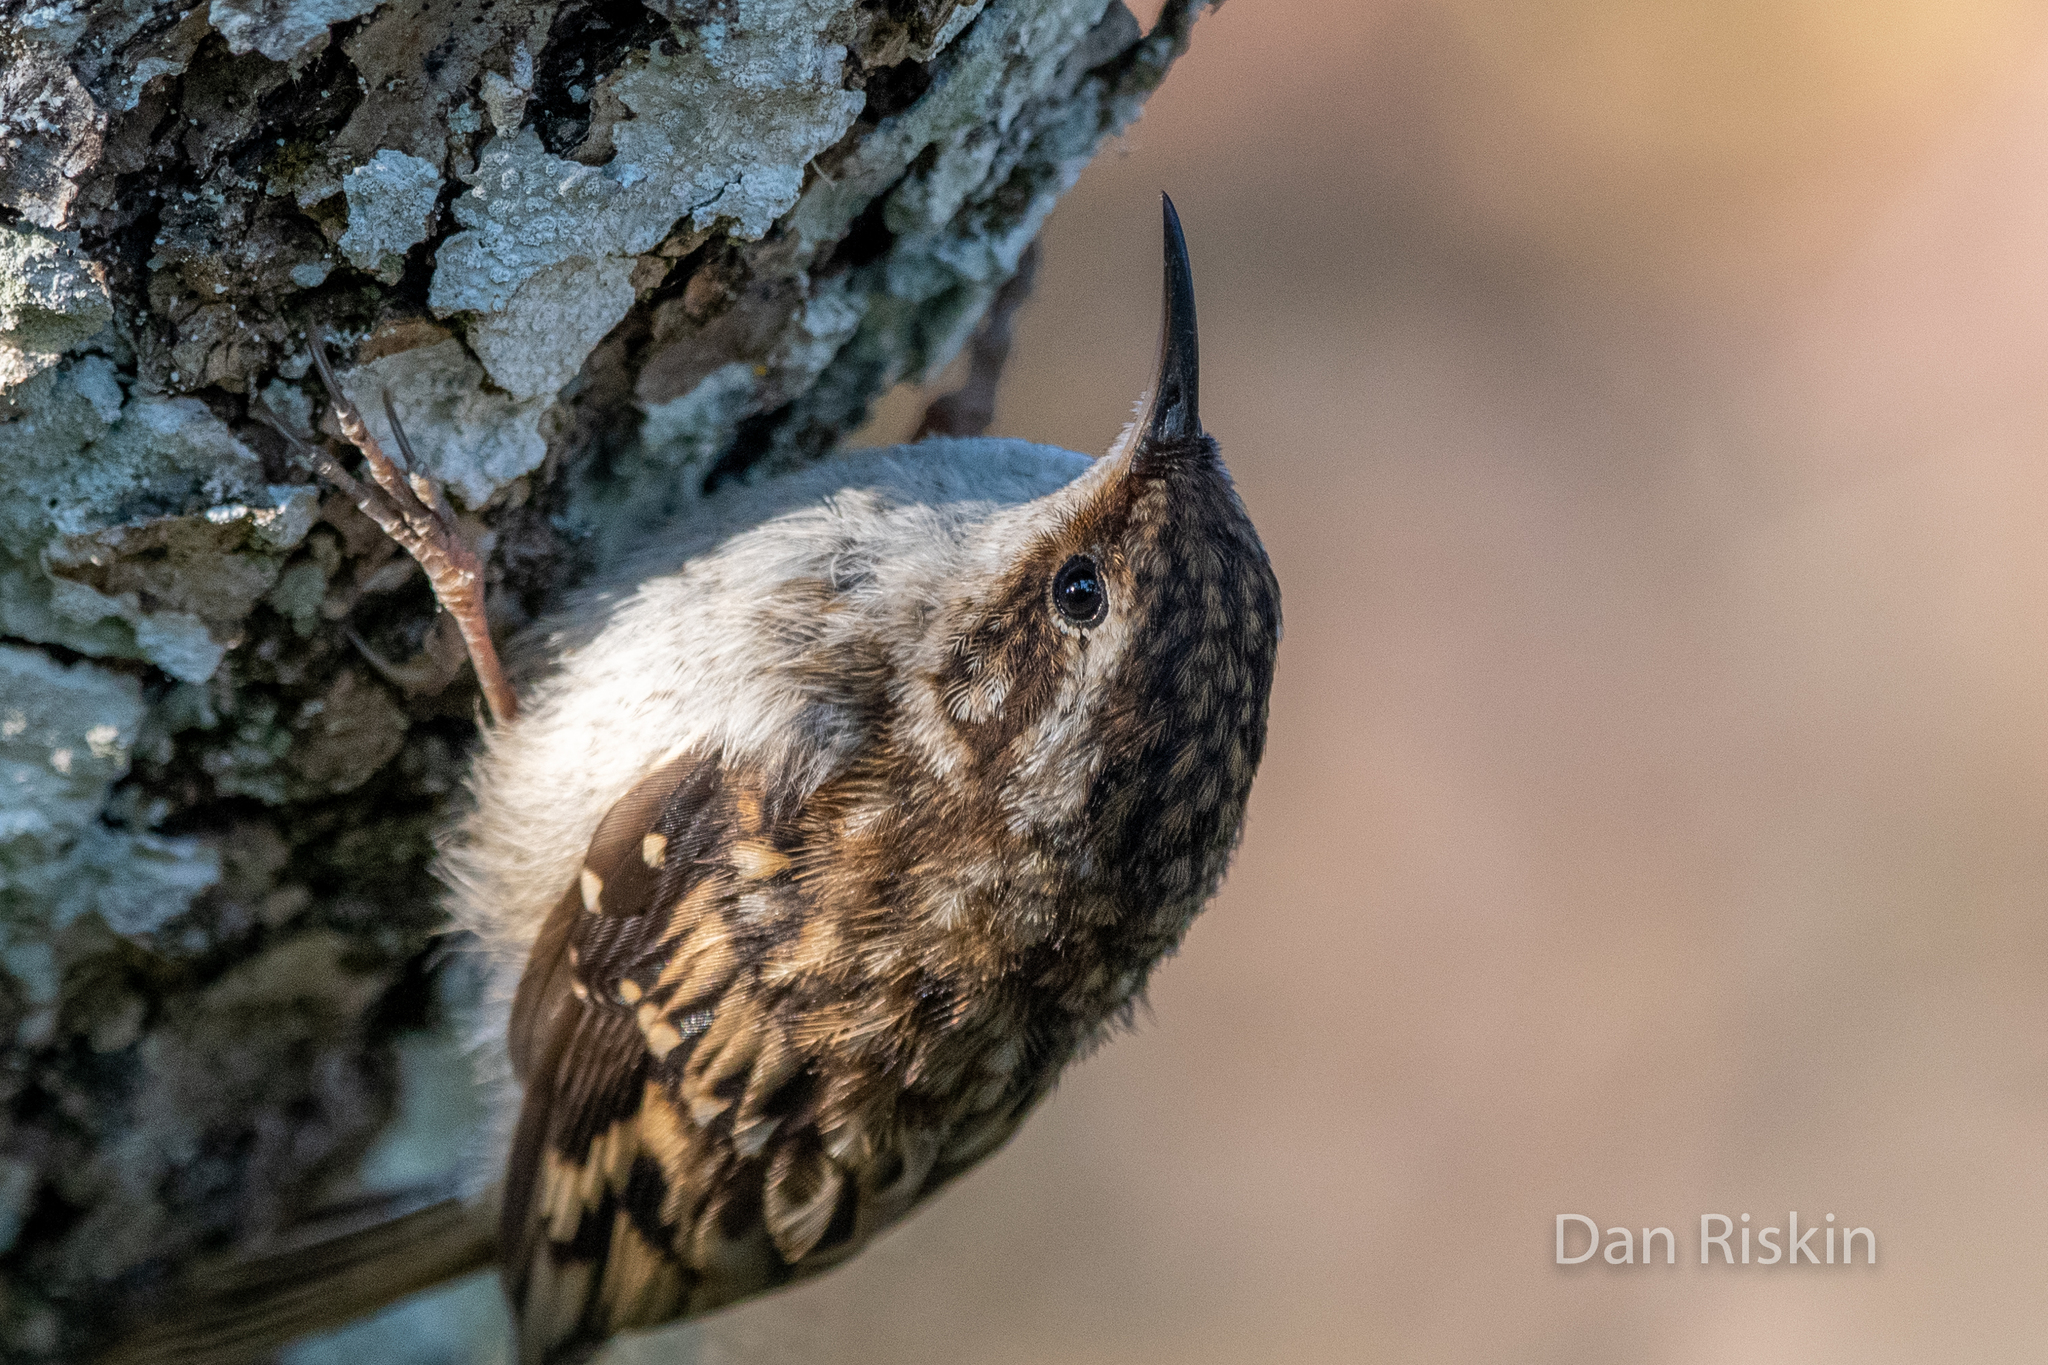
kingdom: Animalia
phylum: Chordata
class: Aves
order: Passeriformes
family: Certhiidae
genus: Certhia
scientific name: Certhia americana
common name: Brown creeper
